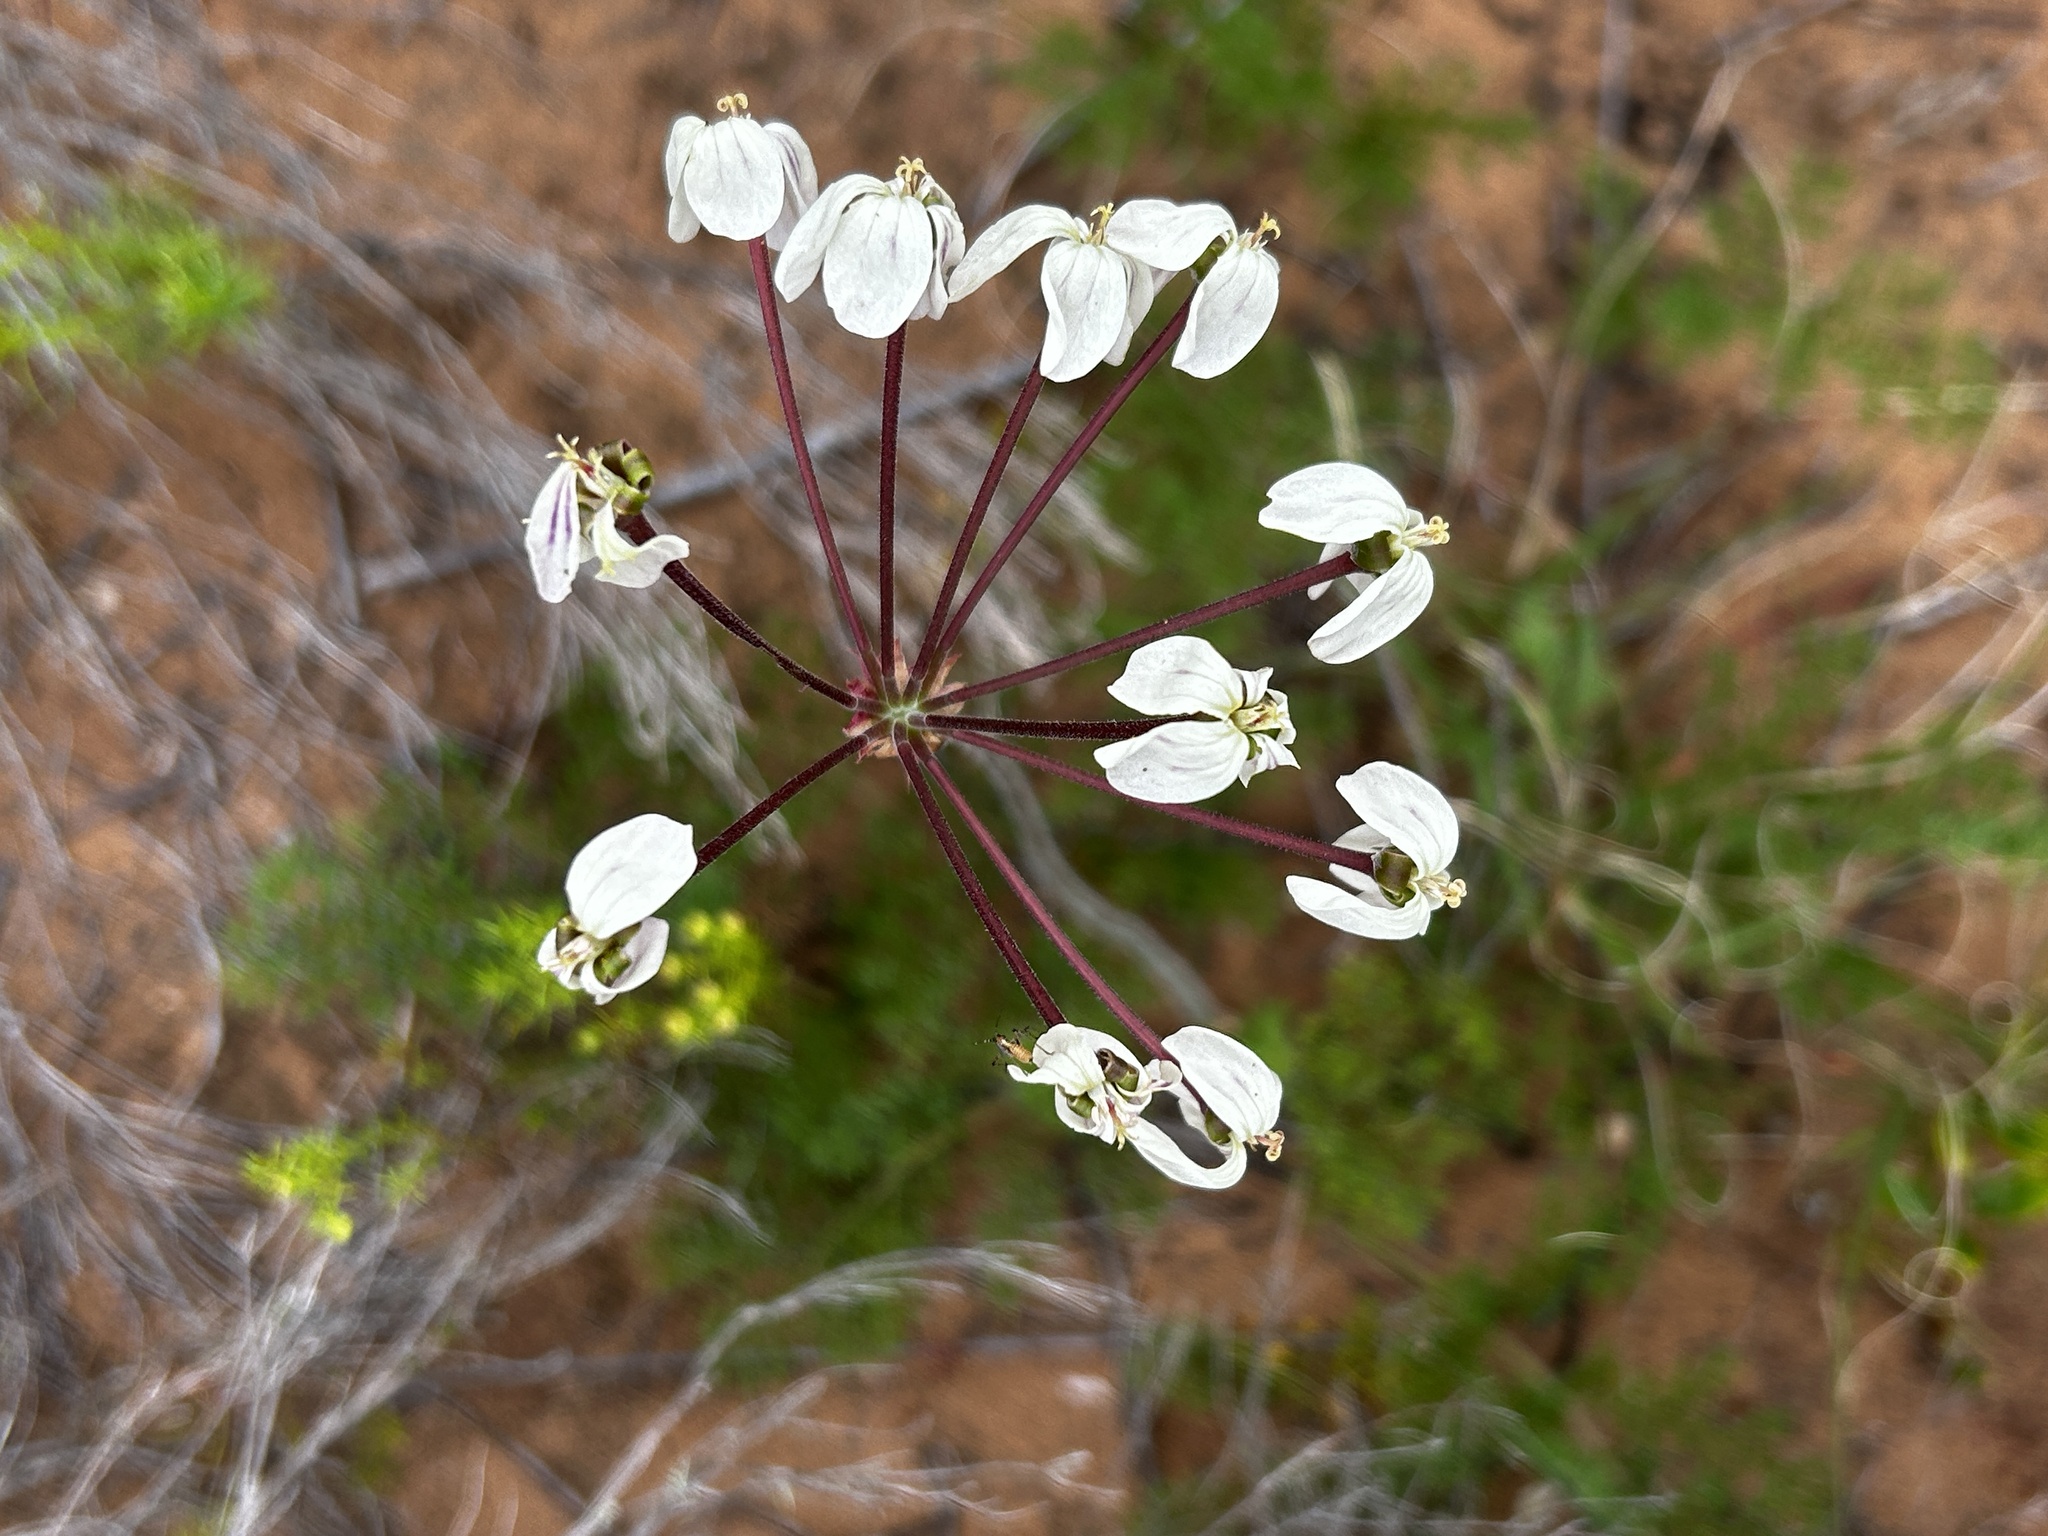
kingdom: Plantae
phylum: Tracheophyta
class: Magnoliopsida
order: Geraniales
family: Geraniaceae
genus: Pelargonium
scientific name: Pelargonium triste
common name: Night-scent pelargonium
